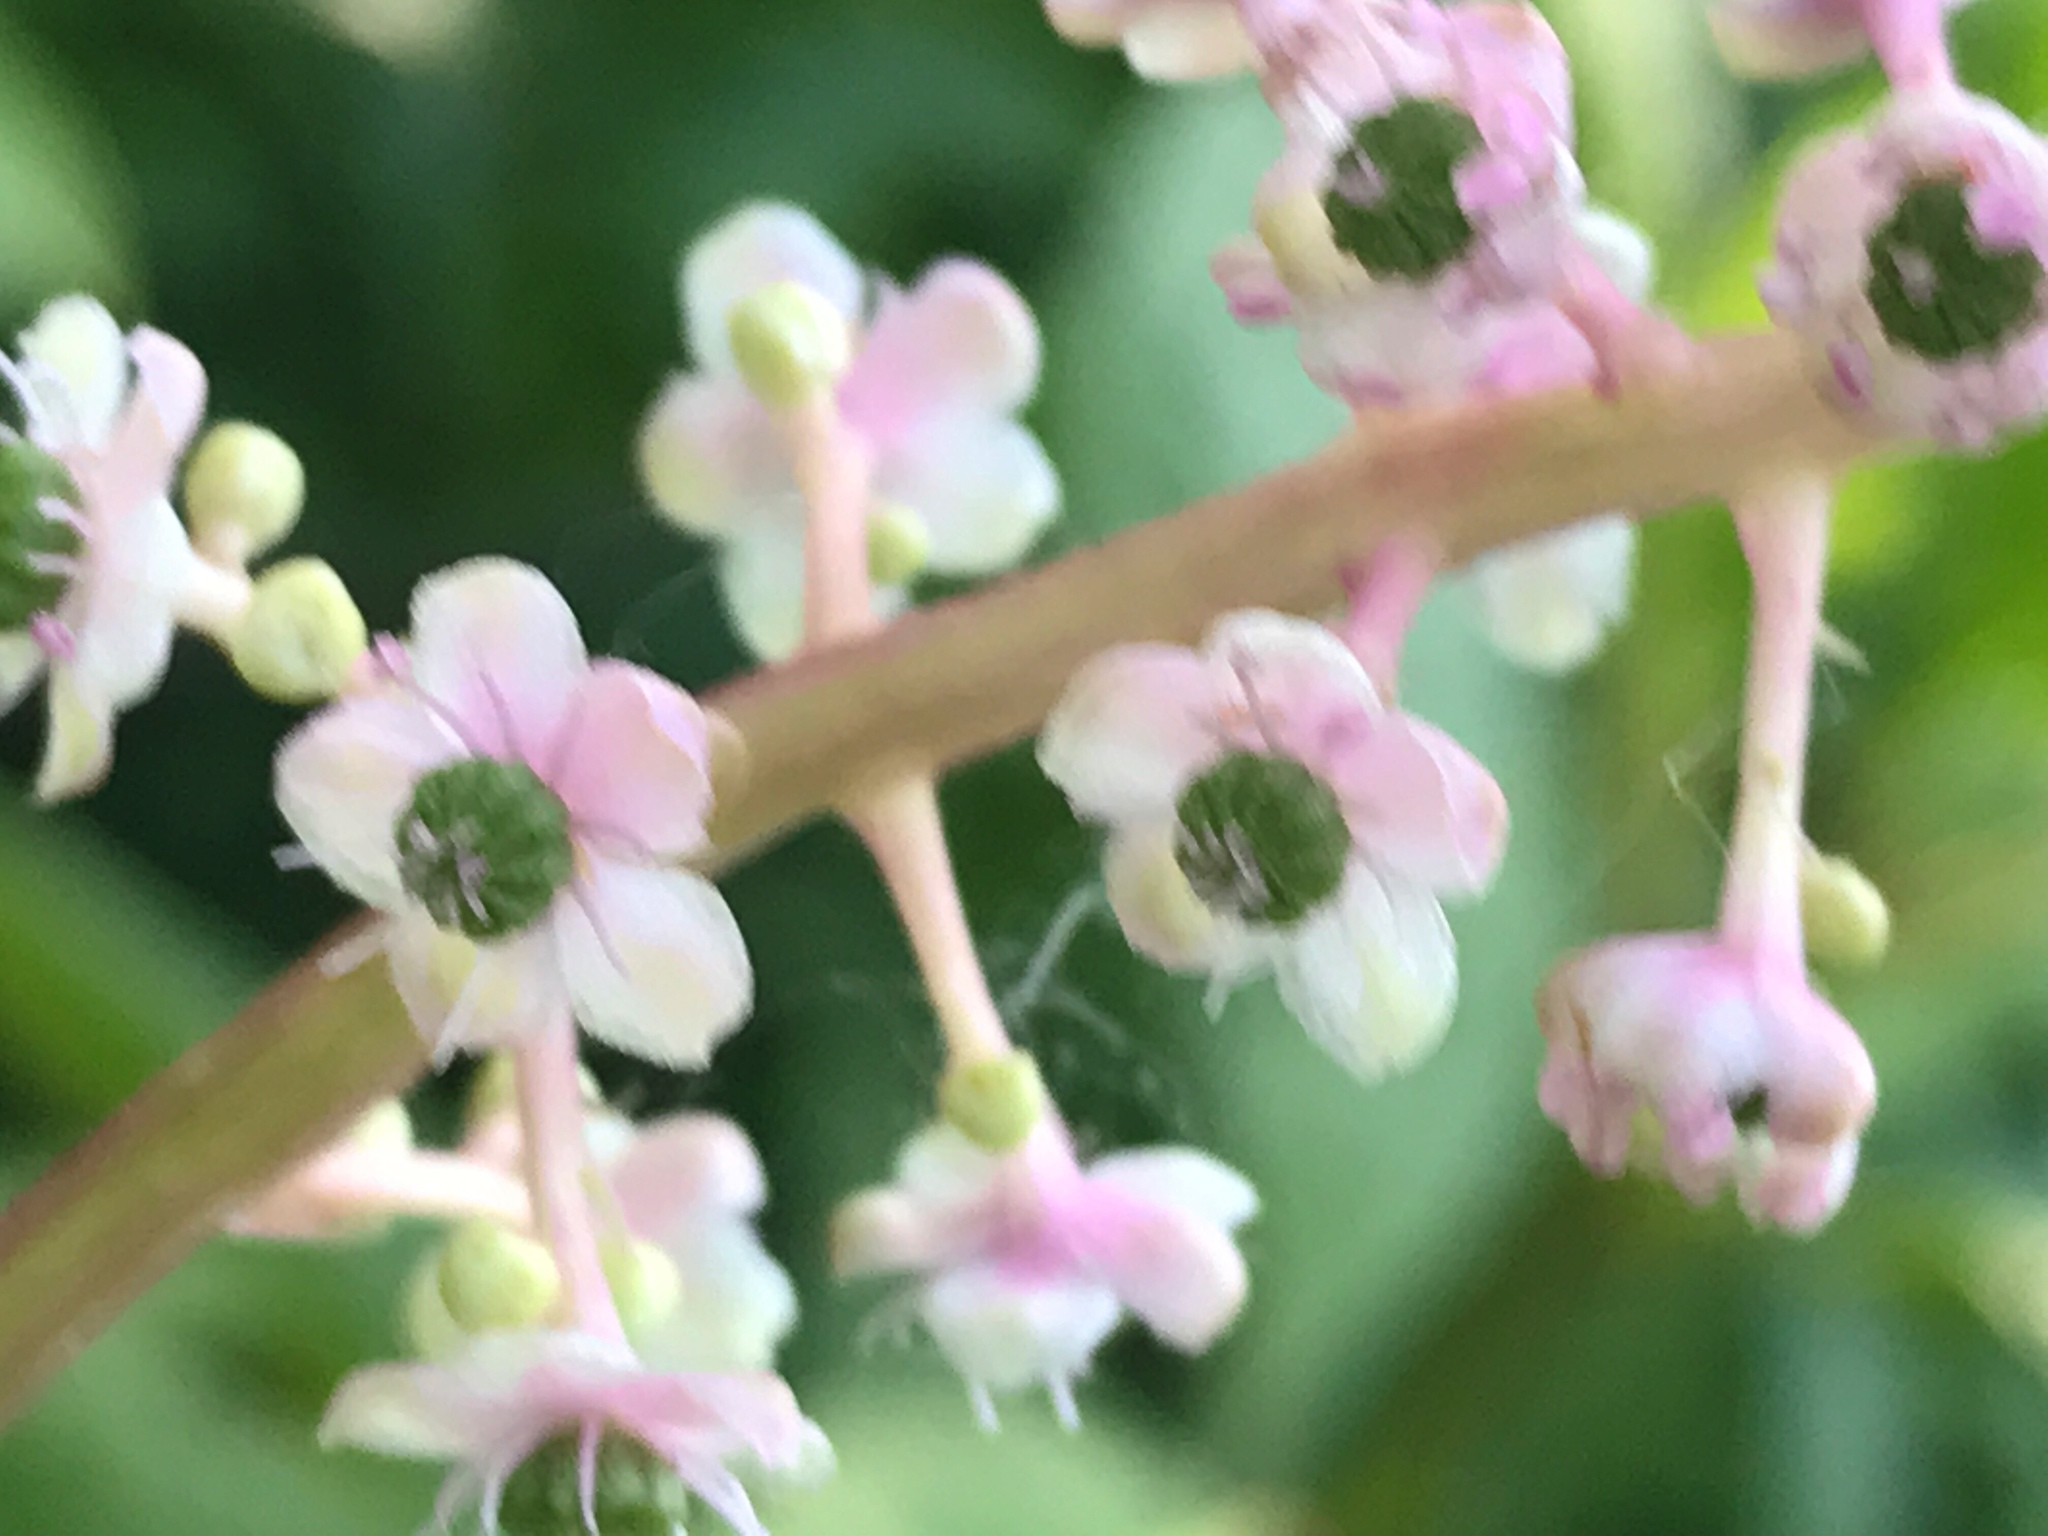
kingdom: Plantae
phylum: Tracheophyta
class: Magnoliopsida
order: Caryophyllales
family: Phytolaccaceae
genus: Phytolacca
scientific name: Phytolacca americana
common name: American pokeweed
